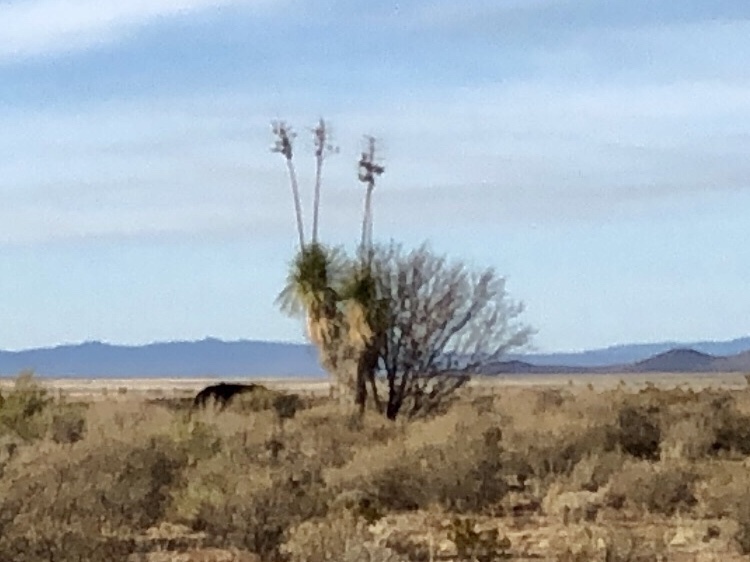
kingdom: Plantae
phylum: Tracheophyta
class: Liliopsida
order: Asparagales
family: Asparagaceae
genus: Yucca
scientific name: Yucca elata
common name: Palmella
